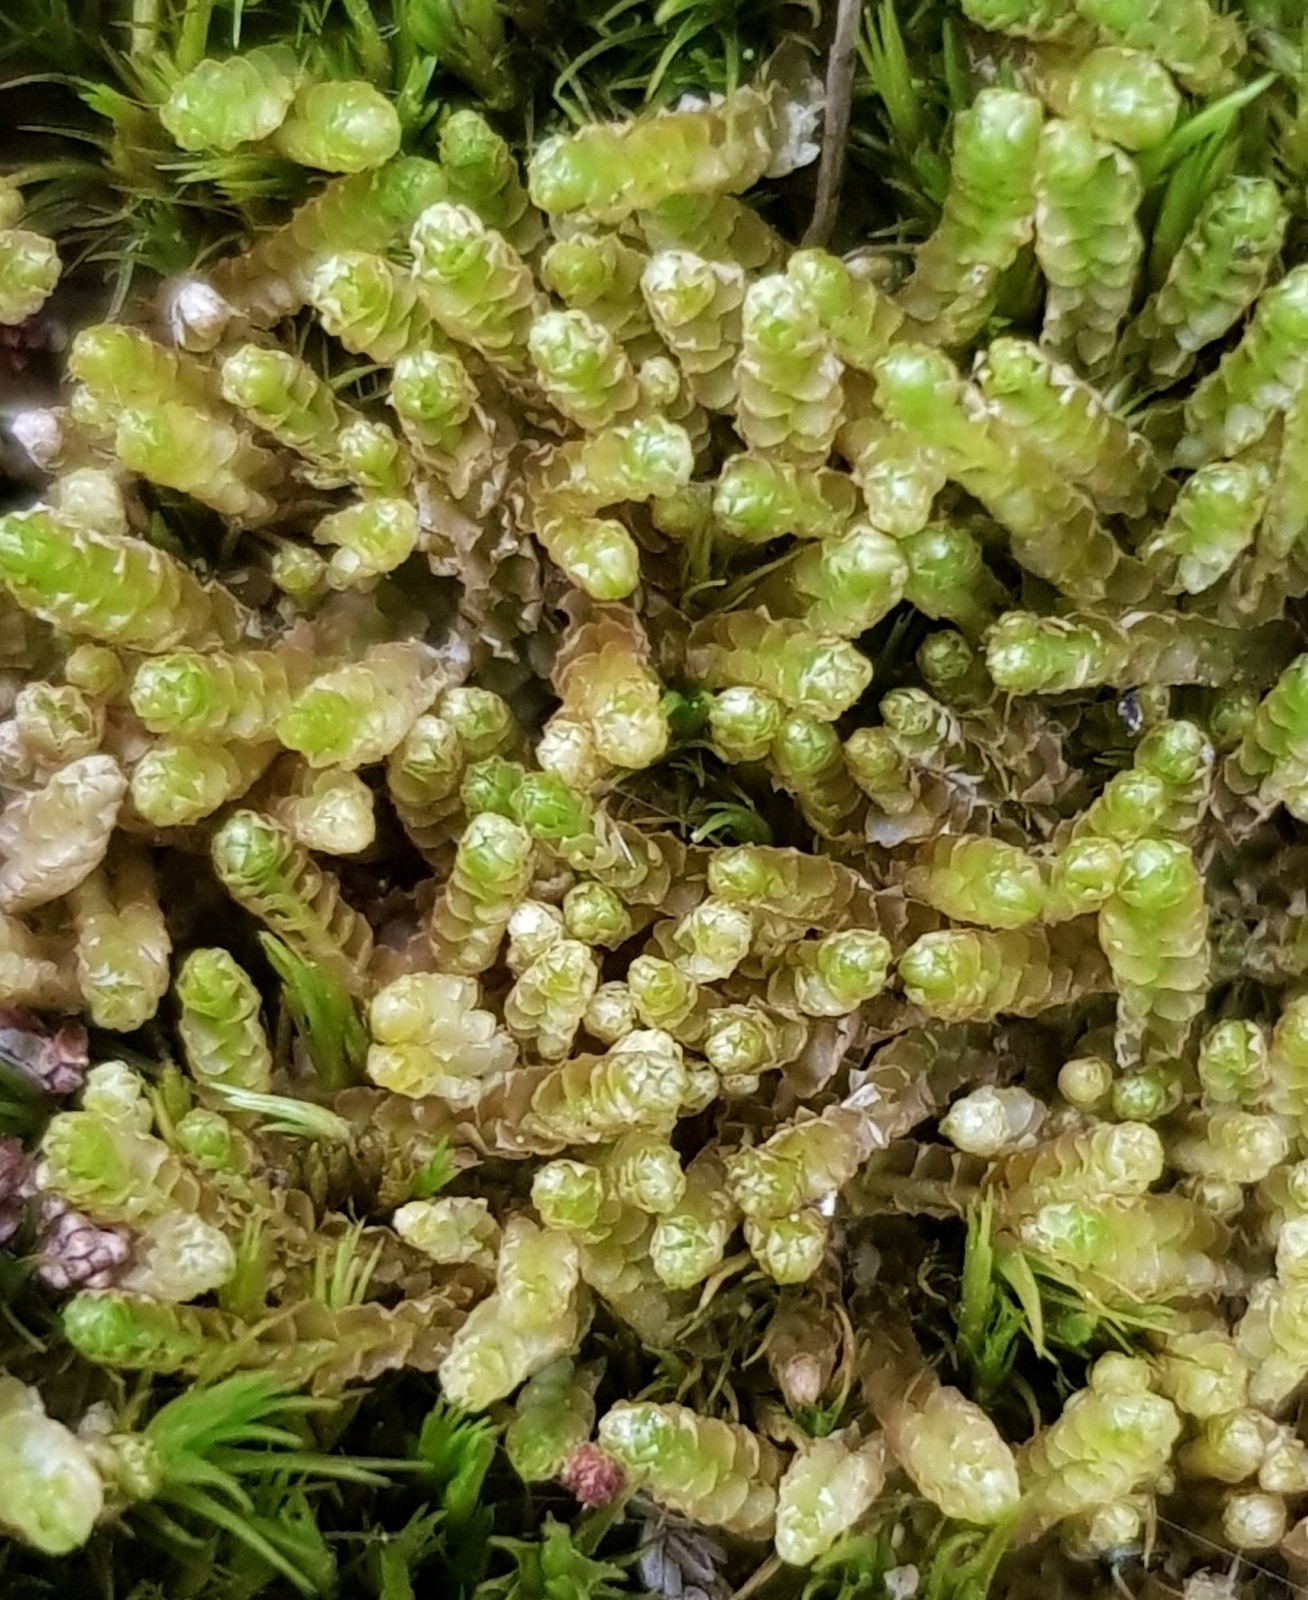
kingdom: Plantae
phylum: Marchantiophyta
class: Jungermanniopsida
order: Jungermanniales
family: Anastrophyllaceae
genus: Neoorthocaulis
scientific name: Neoorthocaulis floerkei
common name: Floerke's barbilophozia
